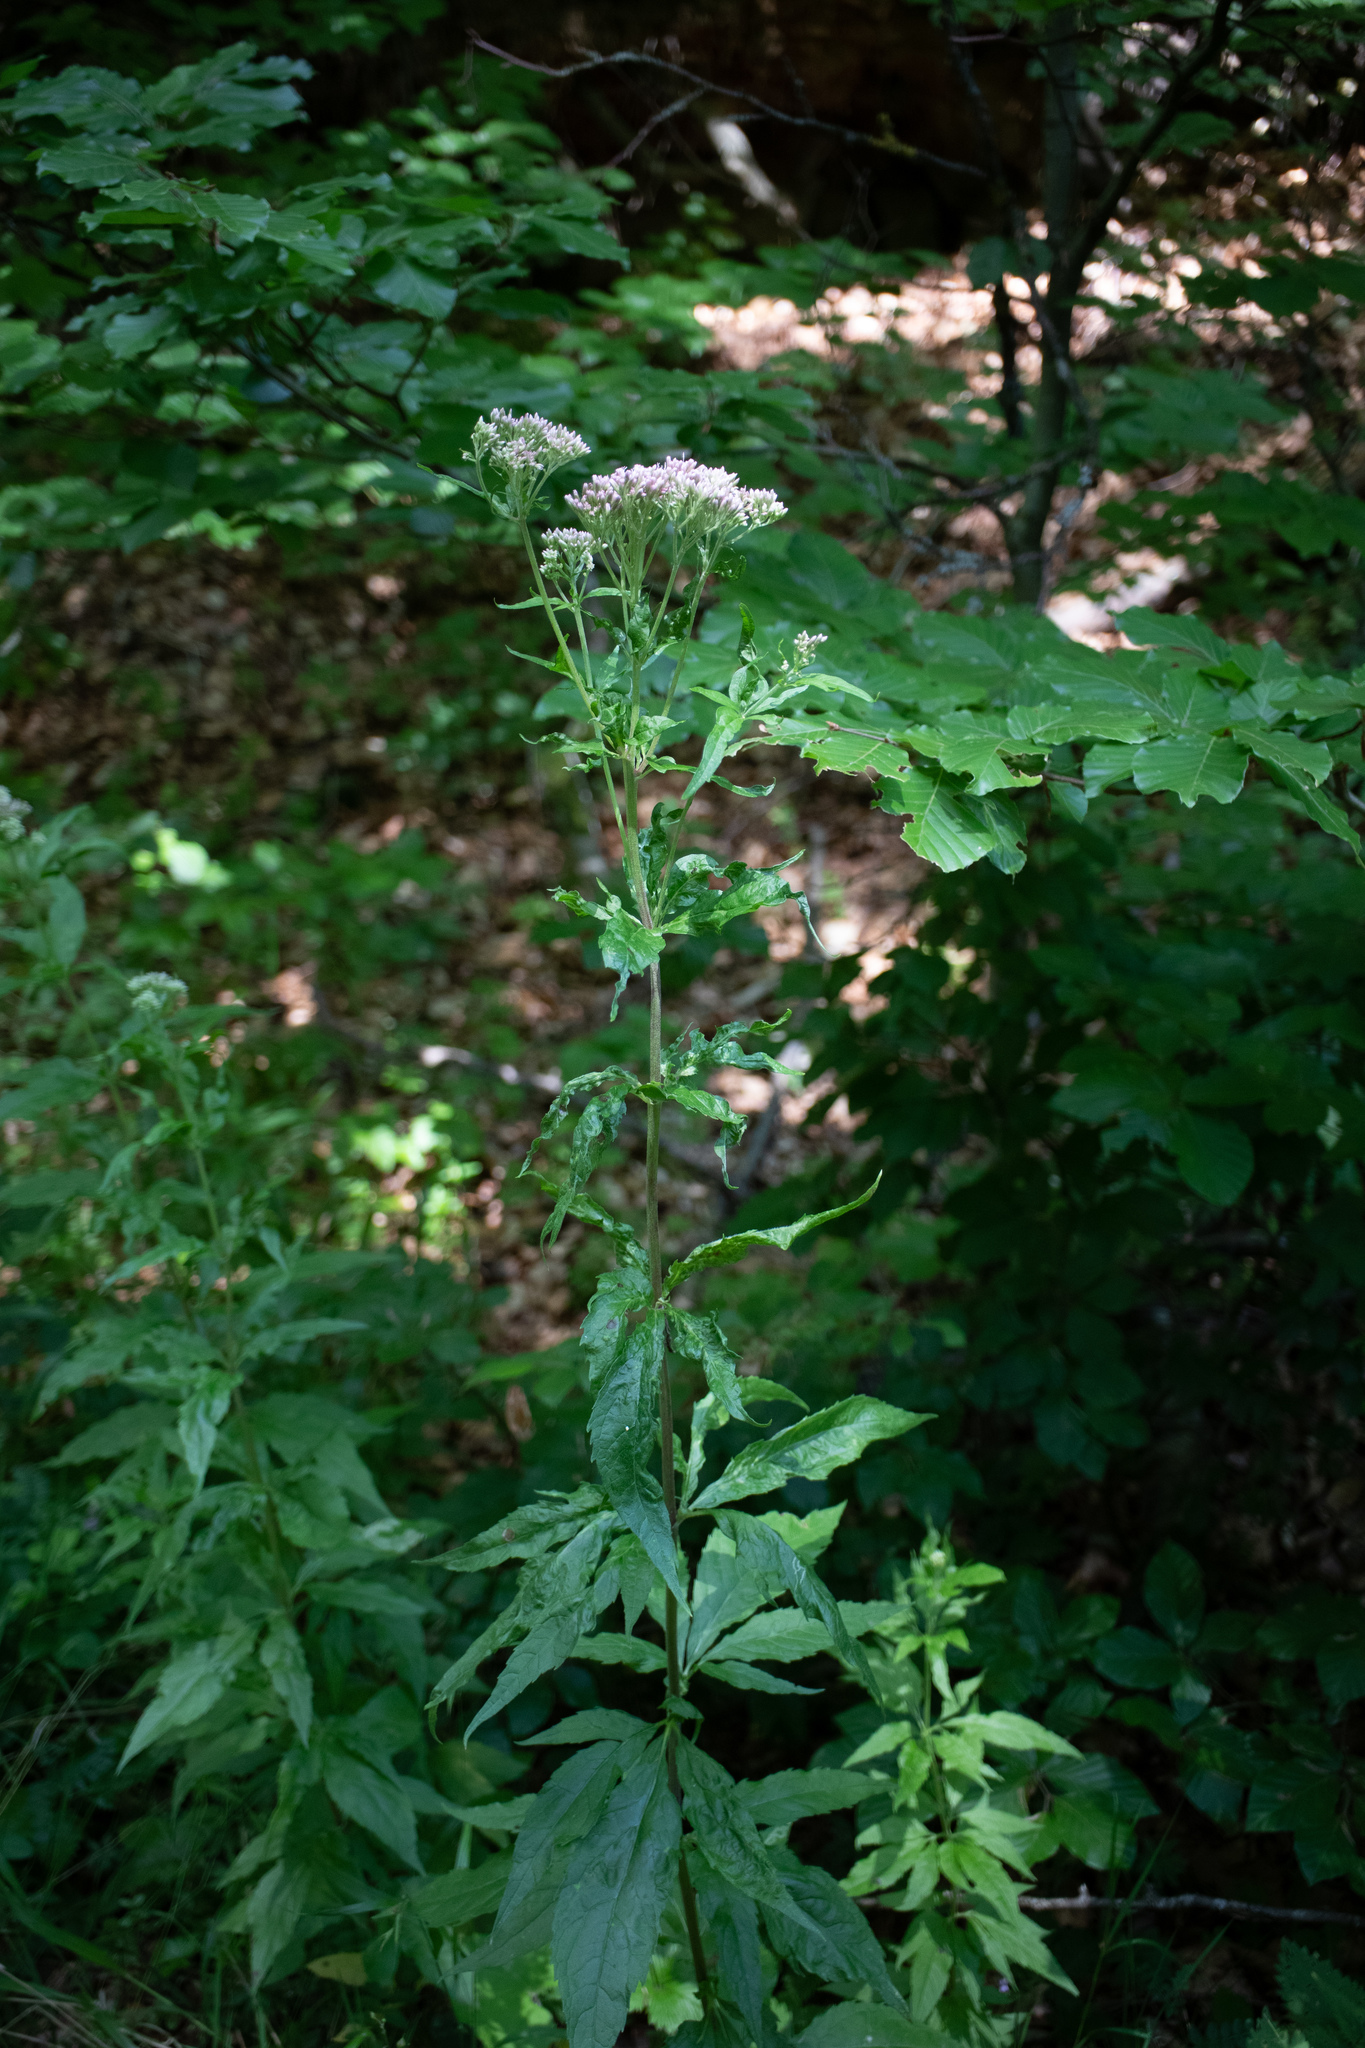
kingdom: Plantae
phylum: Tracheophyta
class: Magnoliopsida
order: Asterales
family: Asteraceae
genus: Eupatorium
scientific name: Eupatorium cannabinum
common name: Hemp-agrimony
